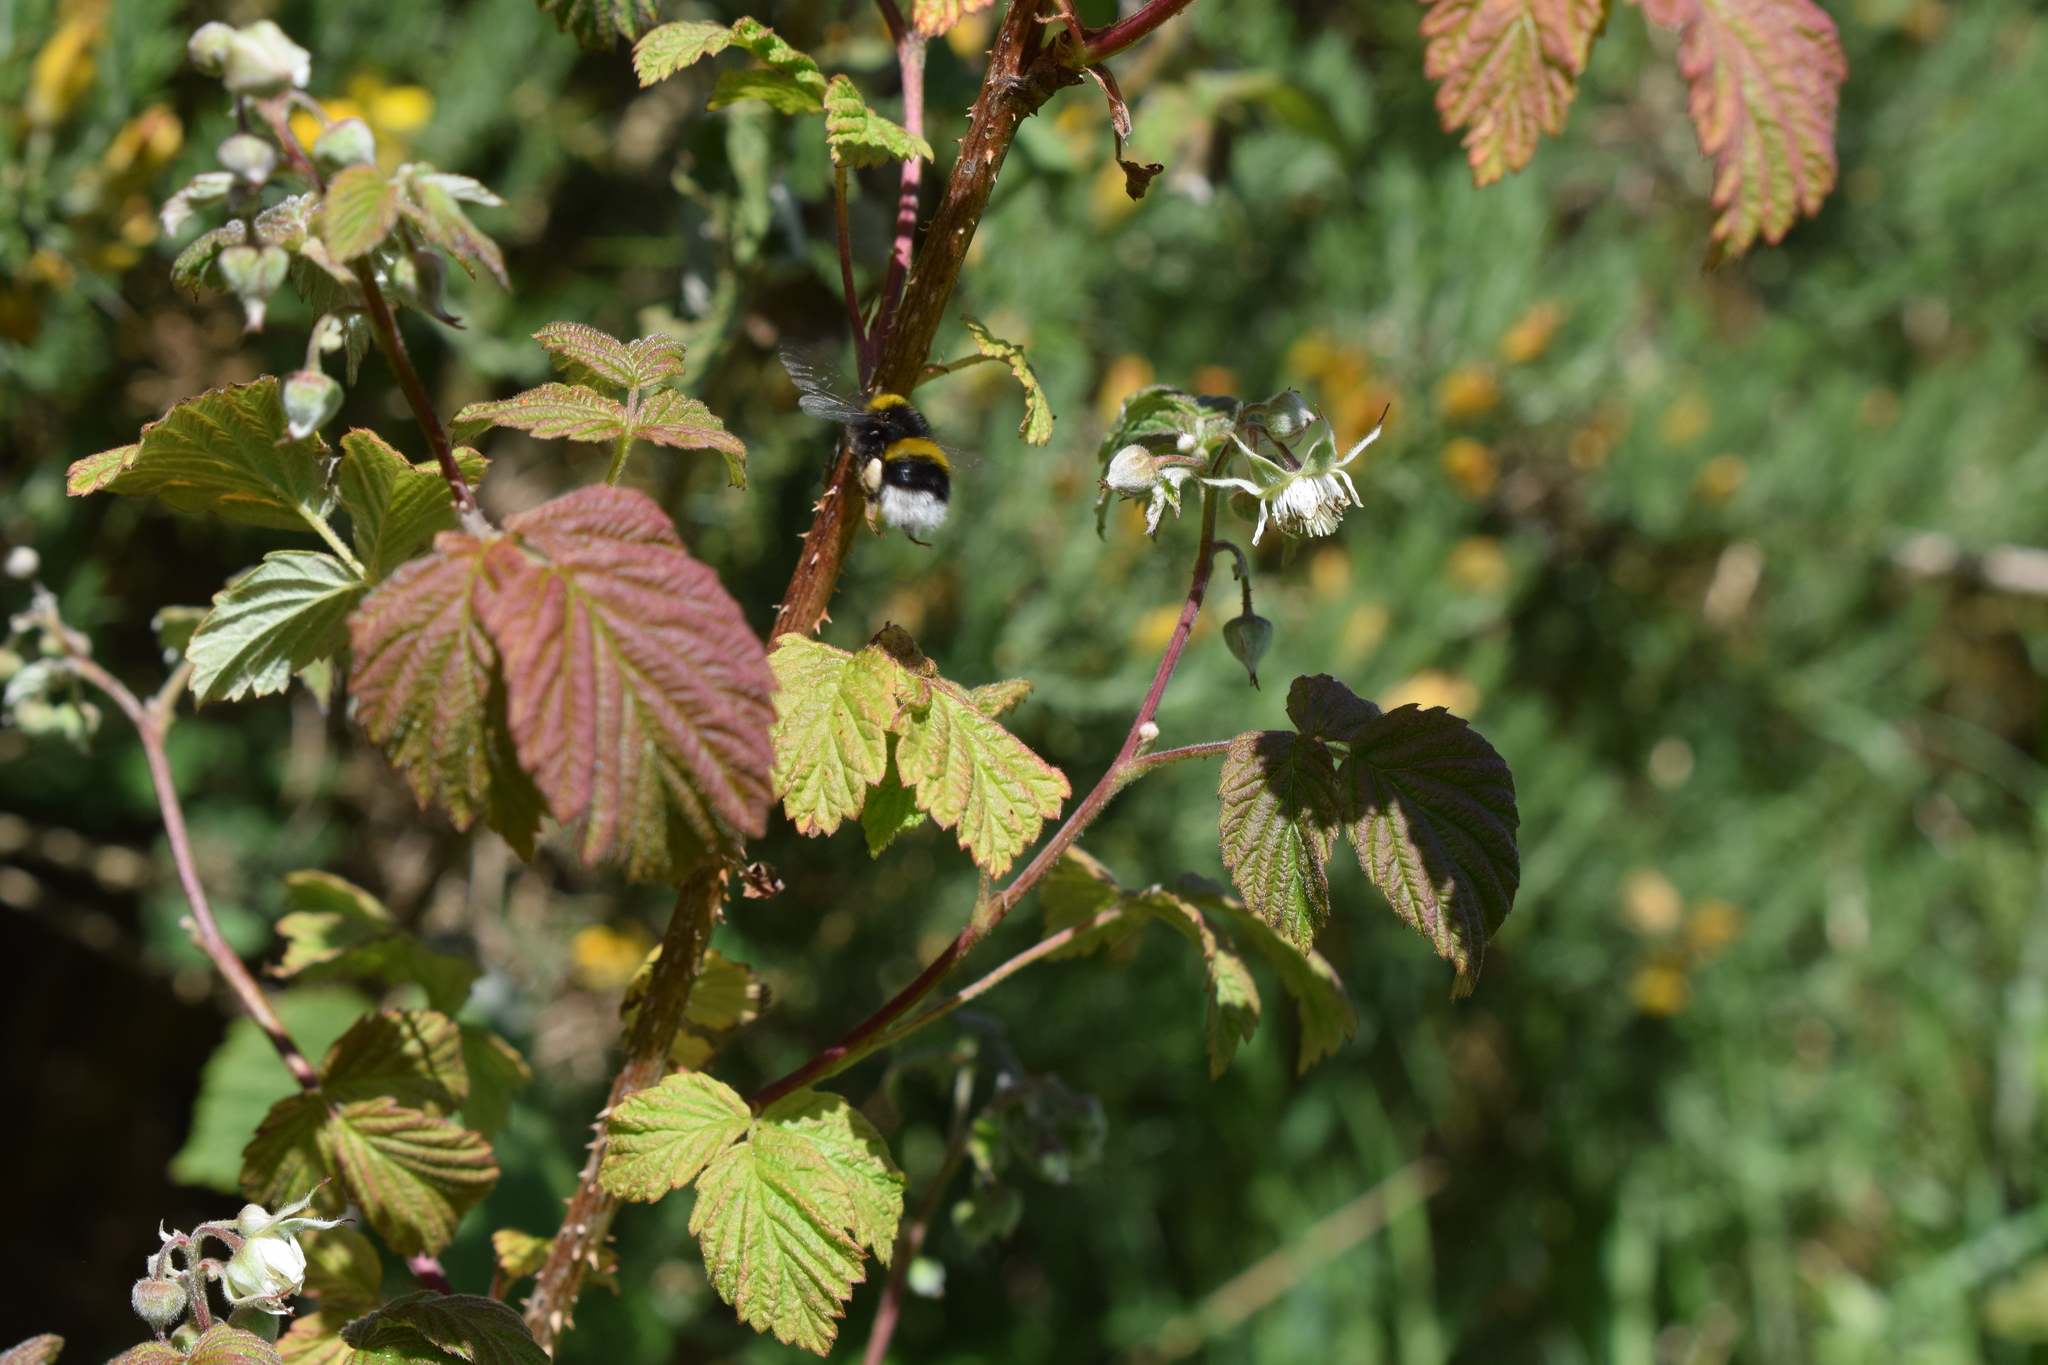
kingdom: Animalia
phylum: Arthropoda
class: Insecta
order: Hymenoptera
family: Apidae
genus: Bombus
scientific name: Bombus terrestris
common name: Buff-tailed bumblebee
